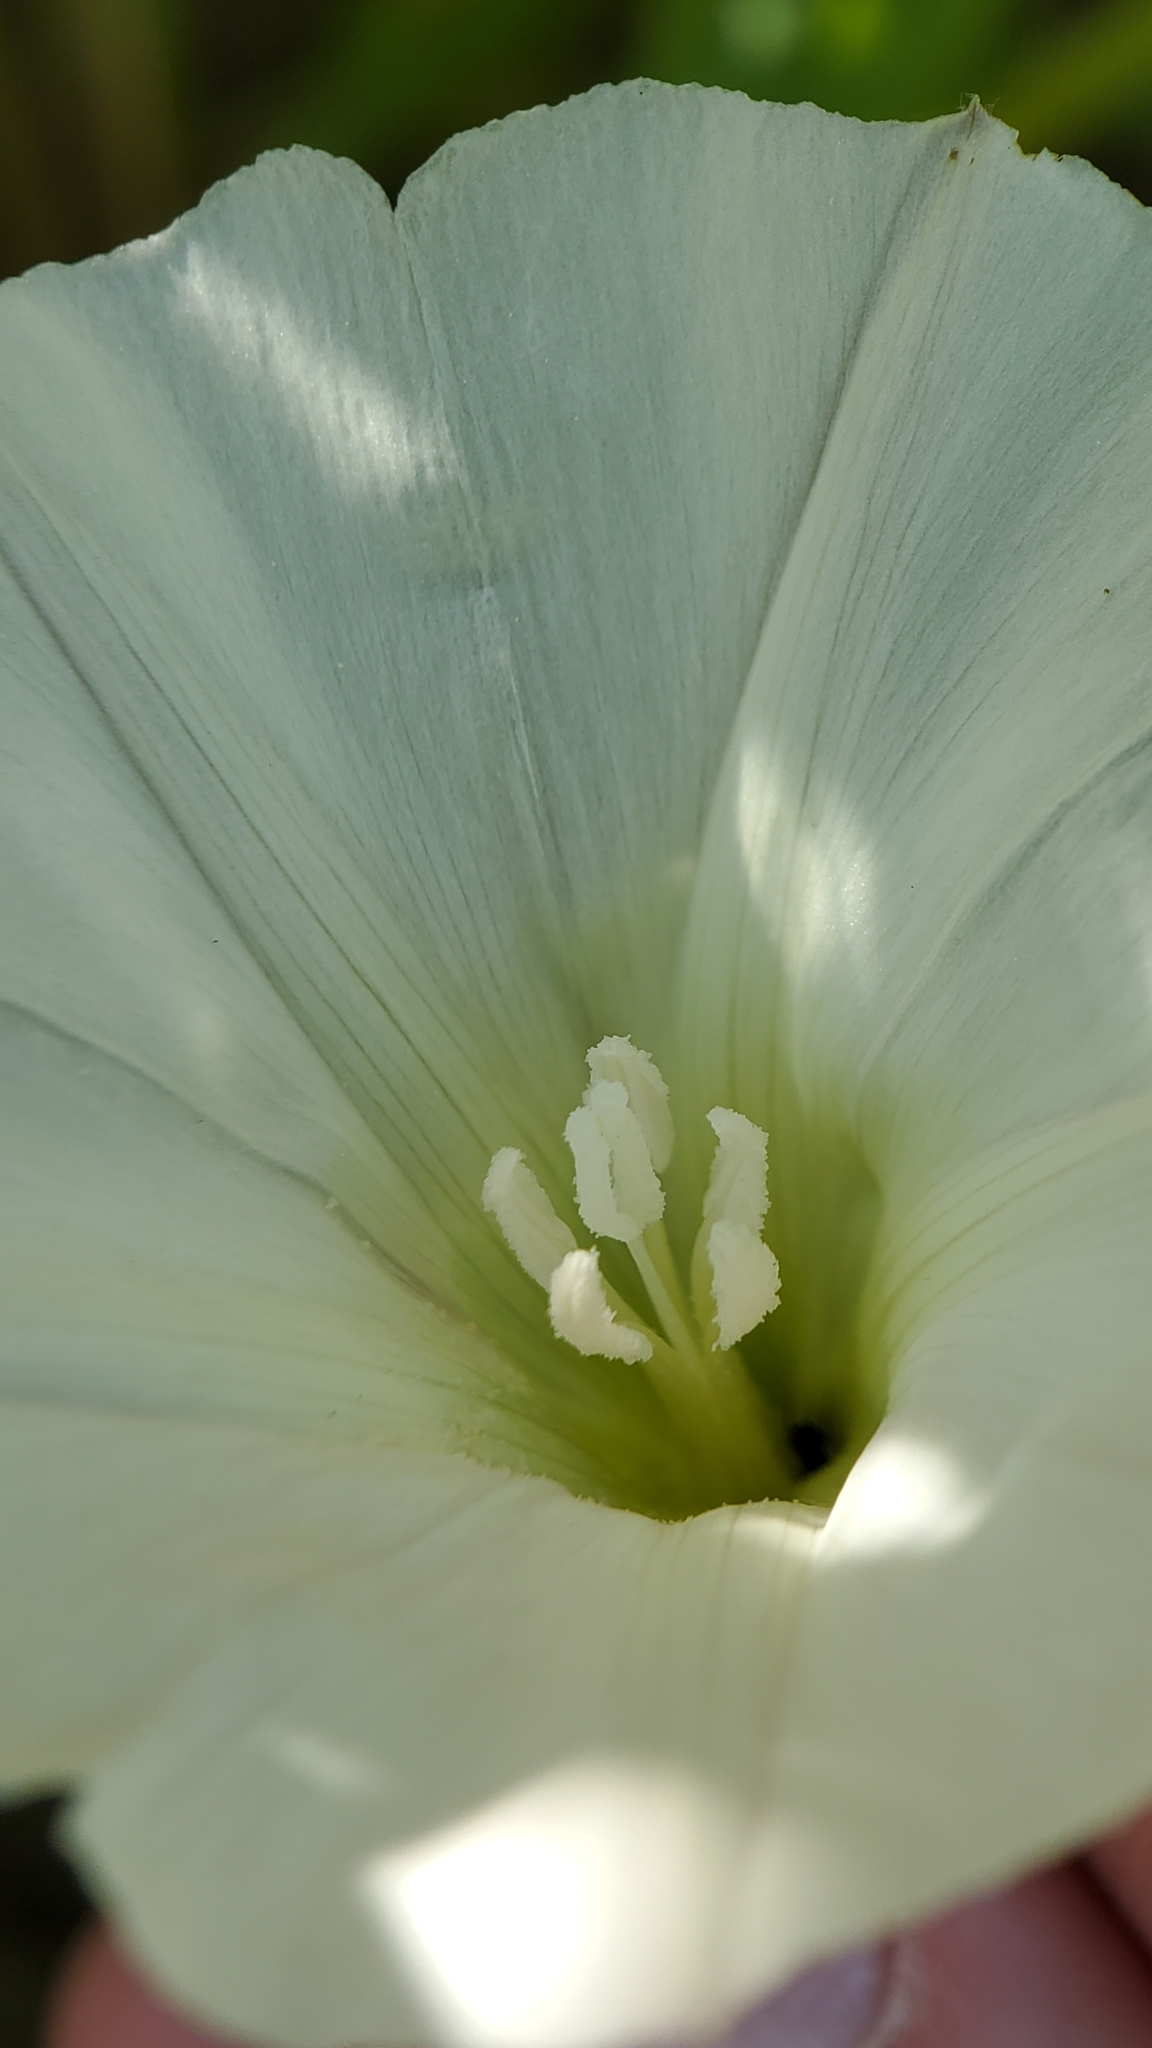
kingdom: Plantae
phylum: Tracheophyta
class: Magnoliopsida
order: Solanales
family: Convolvulaceae
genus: Calystegia
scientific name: Calystegia macrostegia
